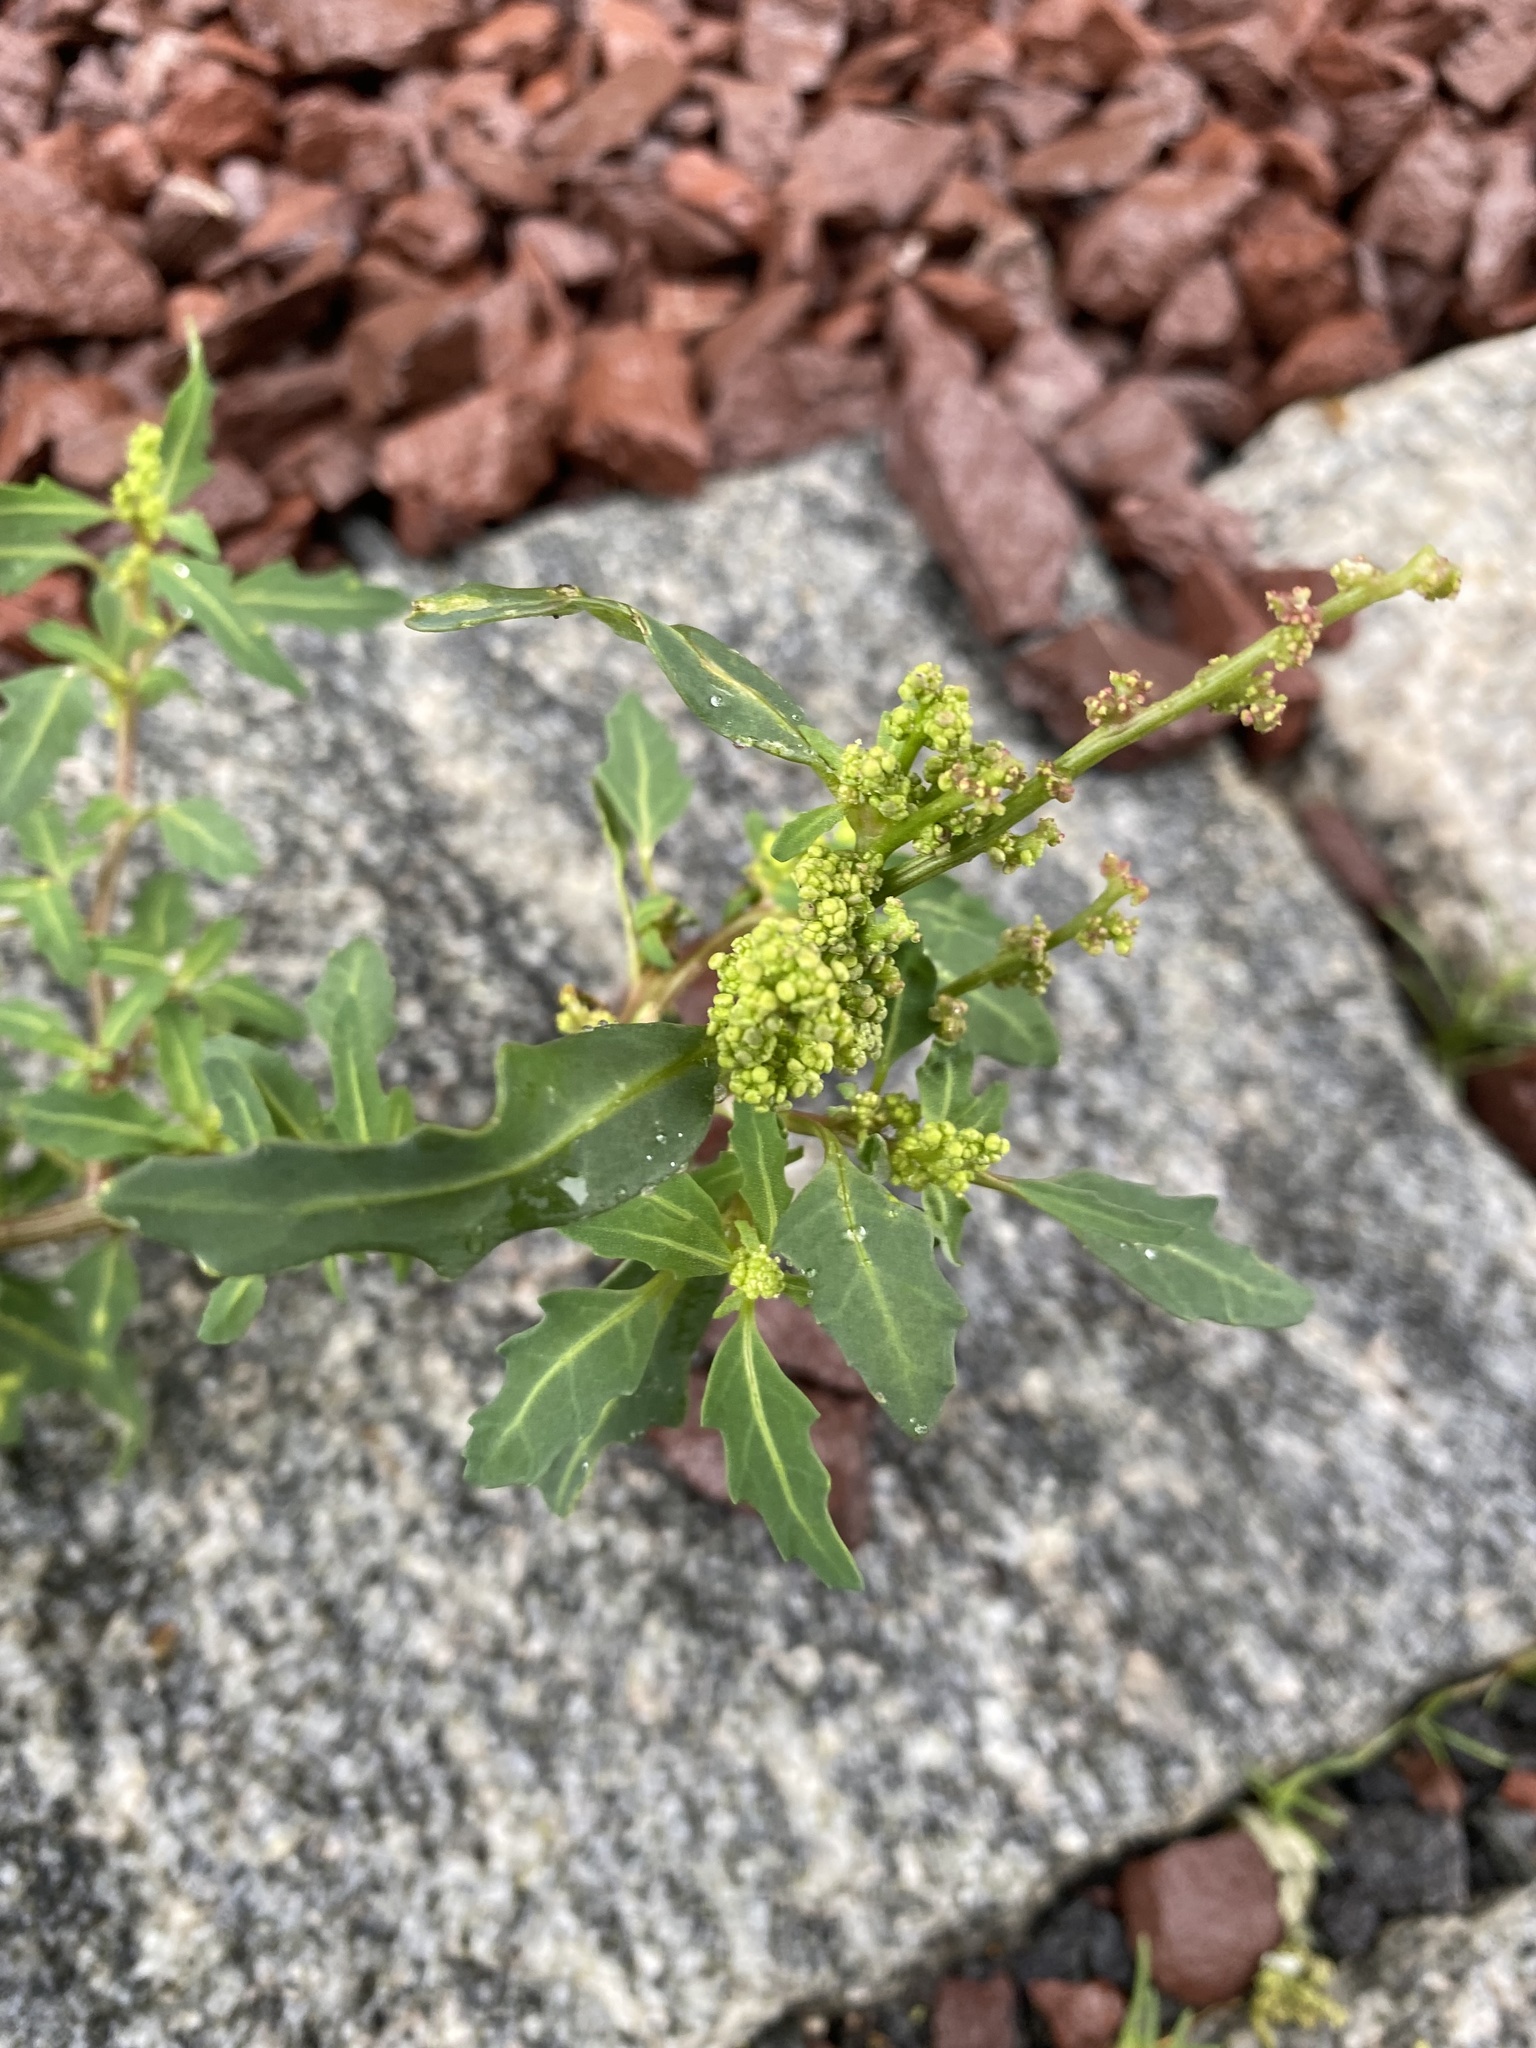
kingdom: Plantae
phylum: Tracheophyta
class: Magnoliopsida
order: Caryophyllales
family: Amaranthaceae
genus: Oxybasis
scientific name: Oxybasis glauca
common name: Glaucous goosefoot
